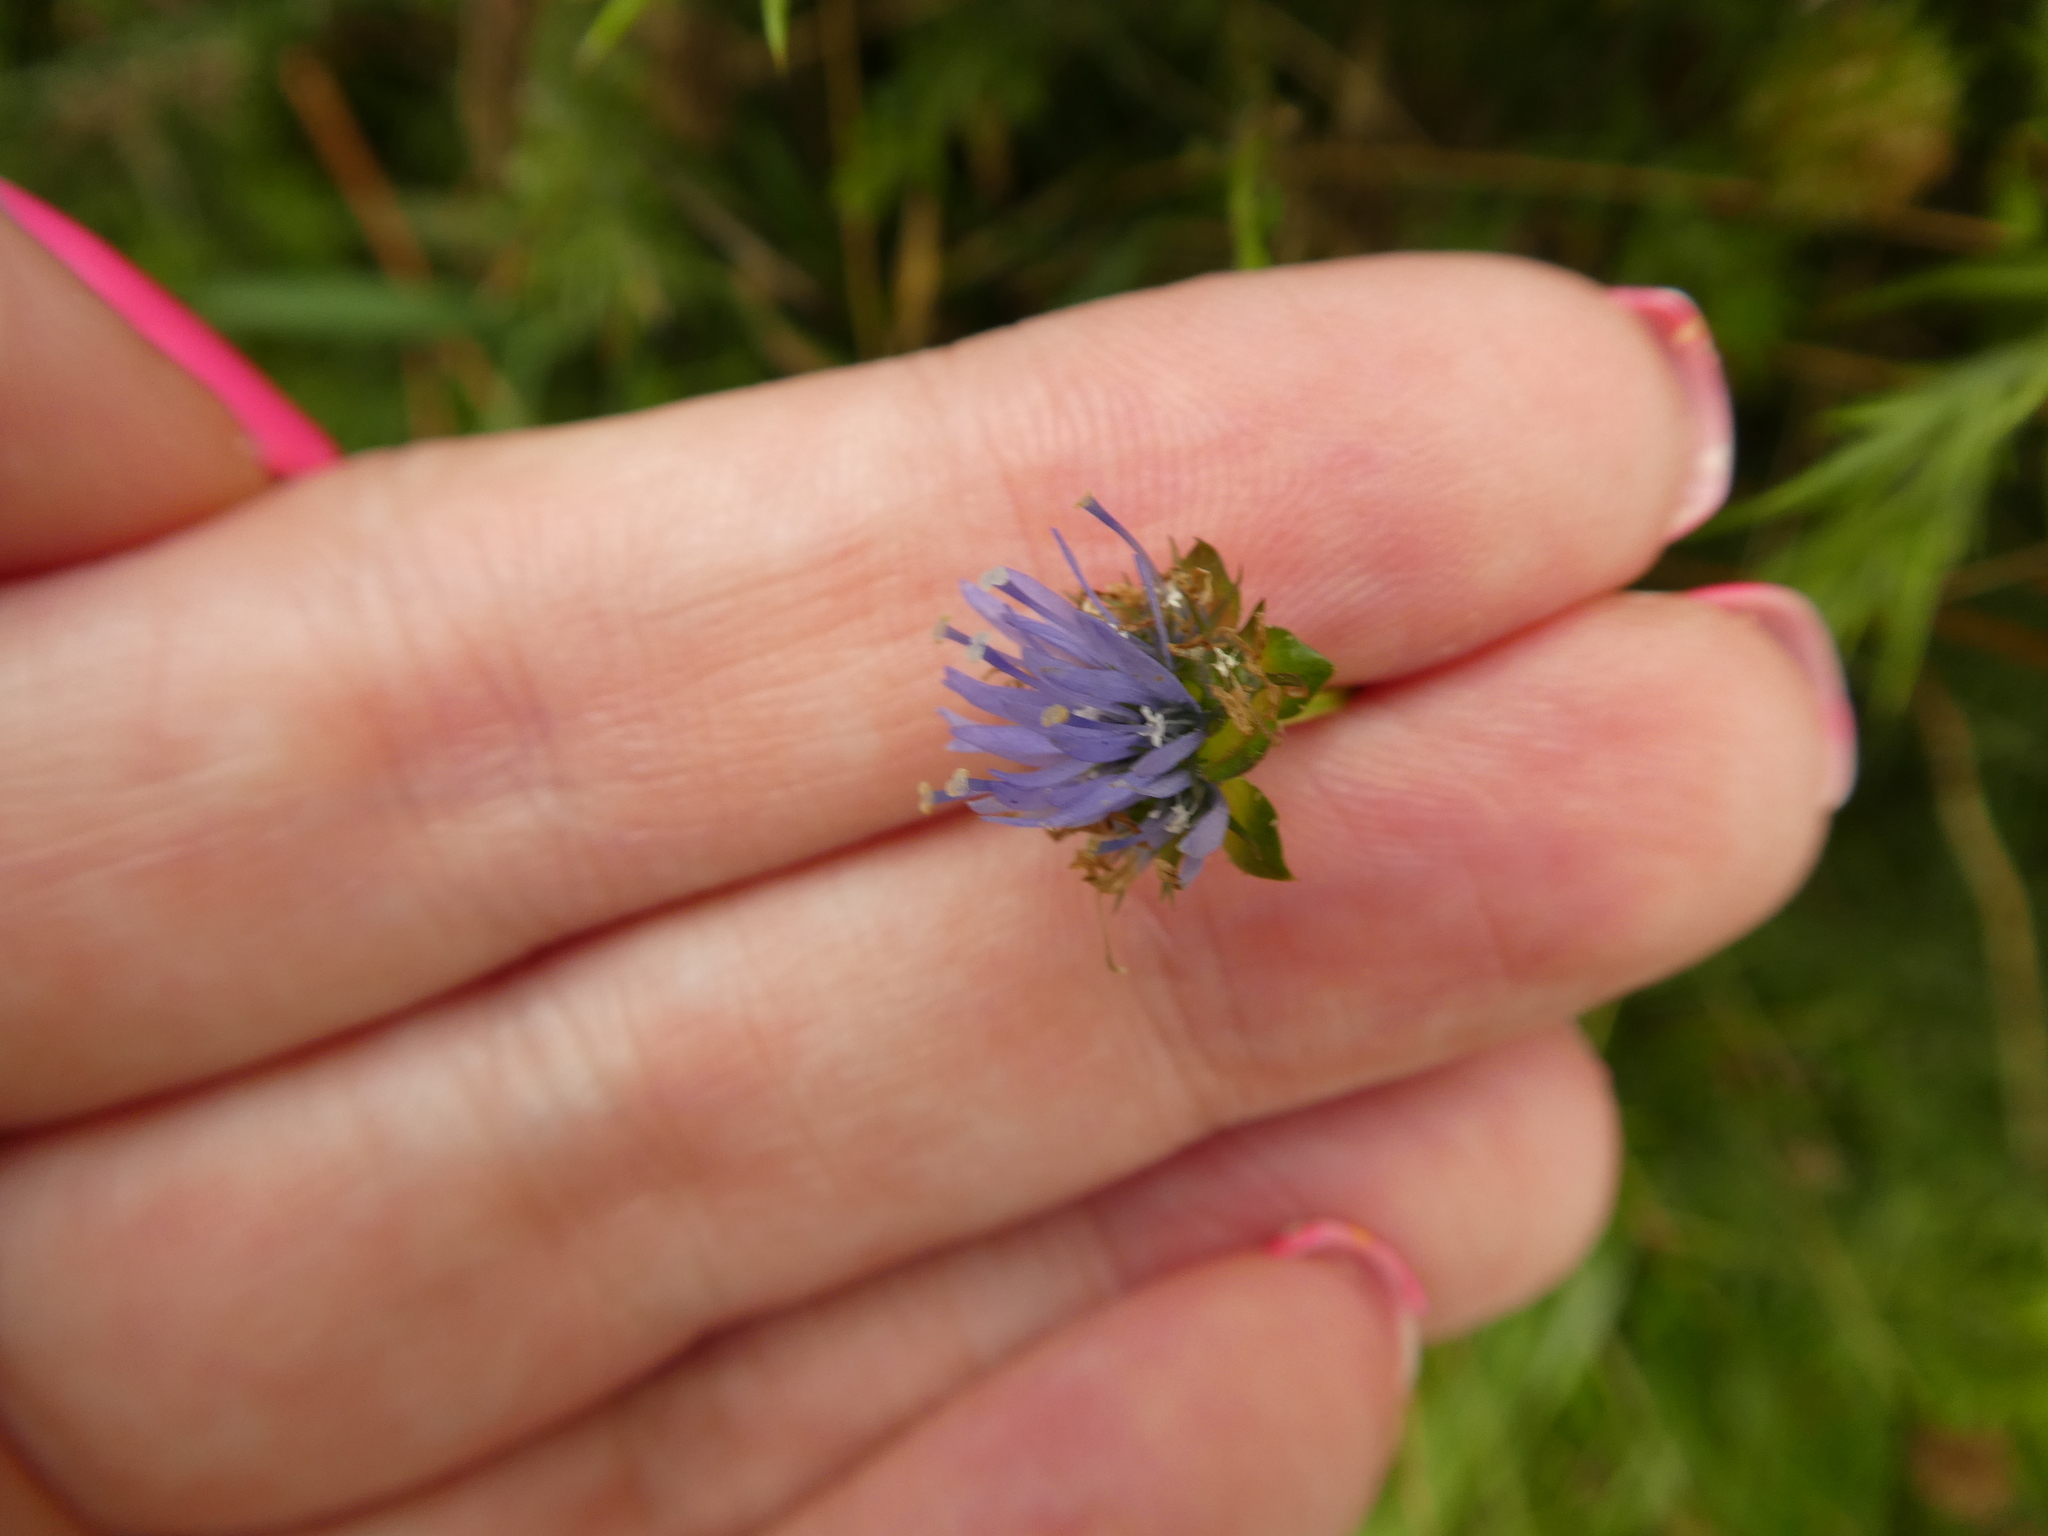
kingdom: Plantae
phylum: Tracheophyta
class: Magnoliopsida
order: Asterales
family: Campanulaceae
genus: Jasione
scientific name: Jasione montana
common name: Sheep's-bit
